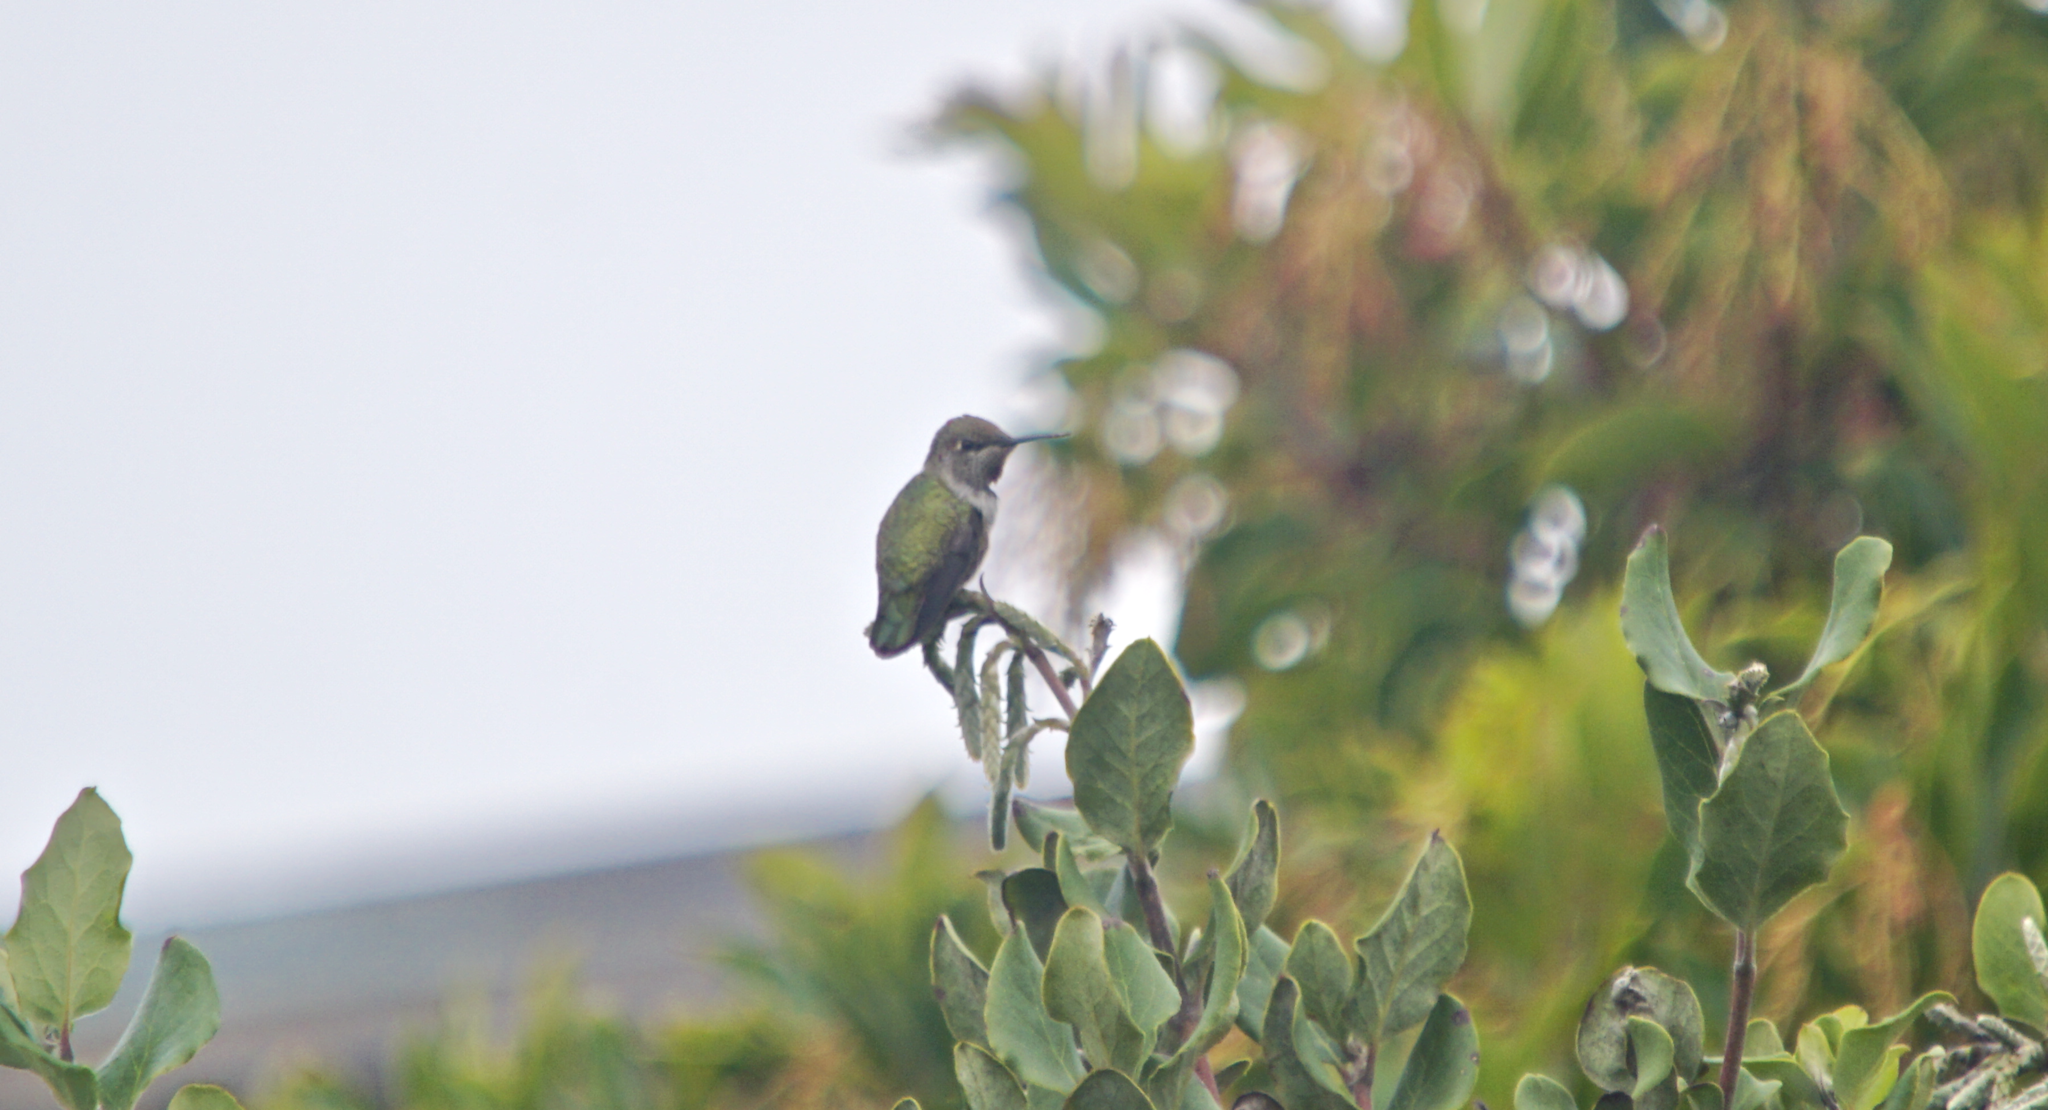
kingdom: Animalia
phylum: Chordata
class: Aves
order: Apodiformes
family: Trochilidae
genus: Calypte
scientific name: Calypte anna
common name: Anna's hummingbird
